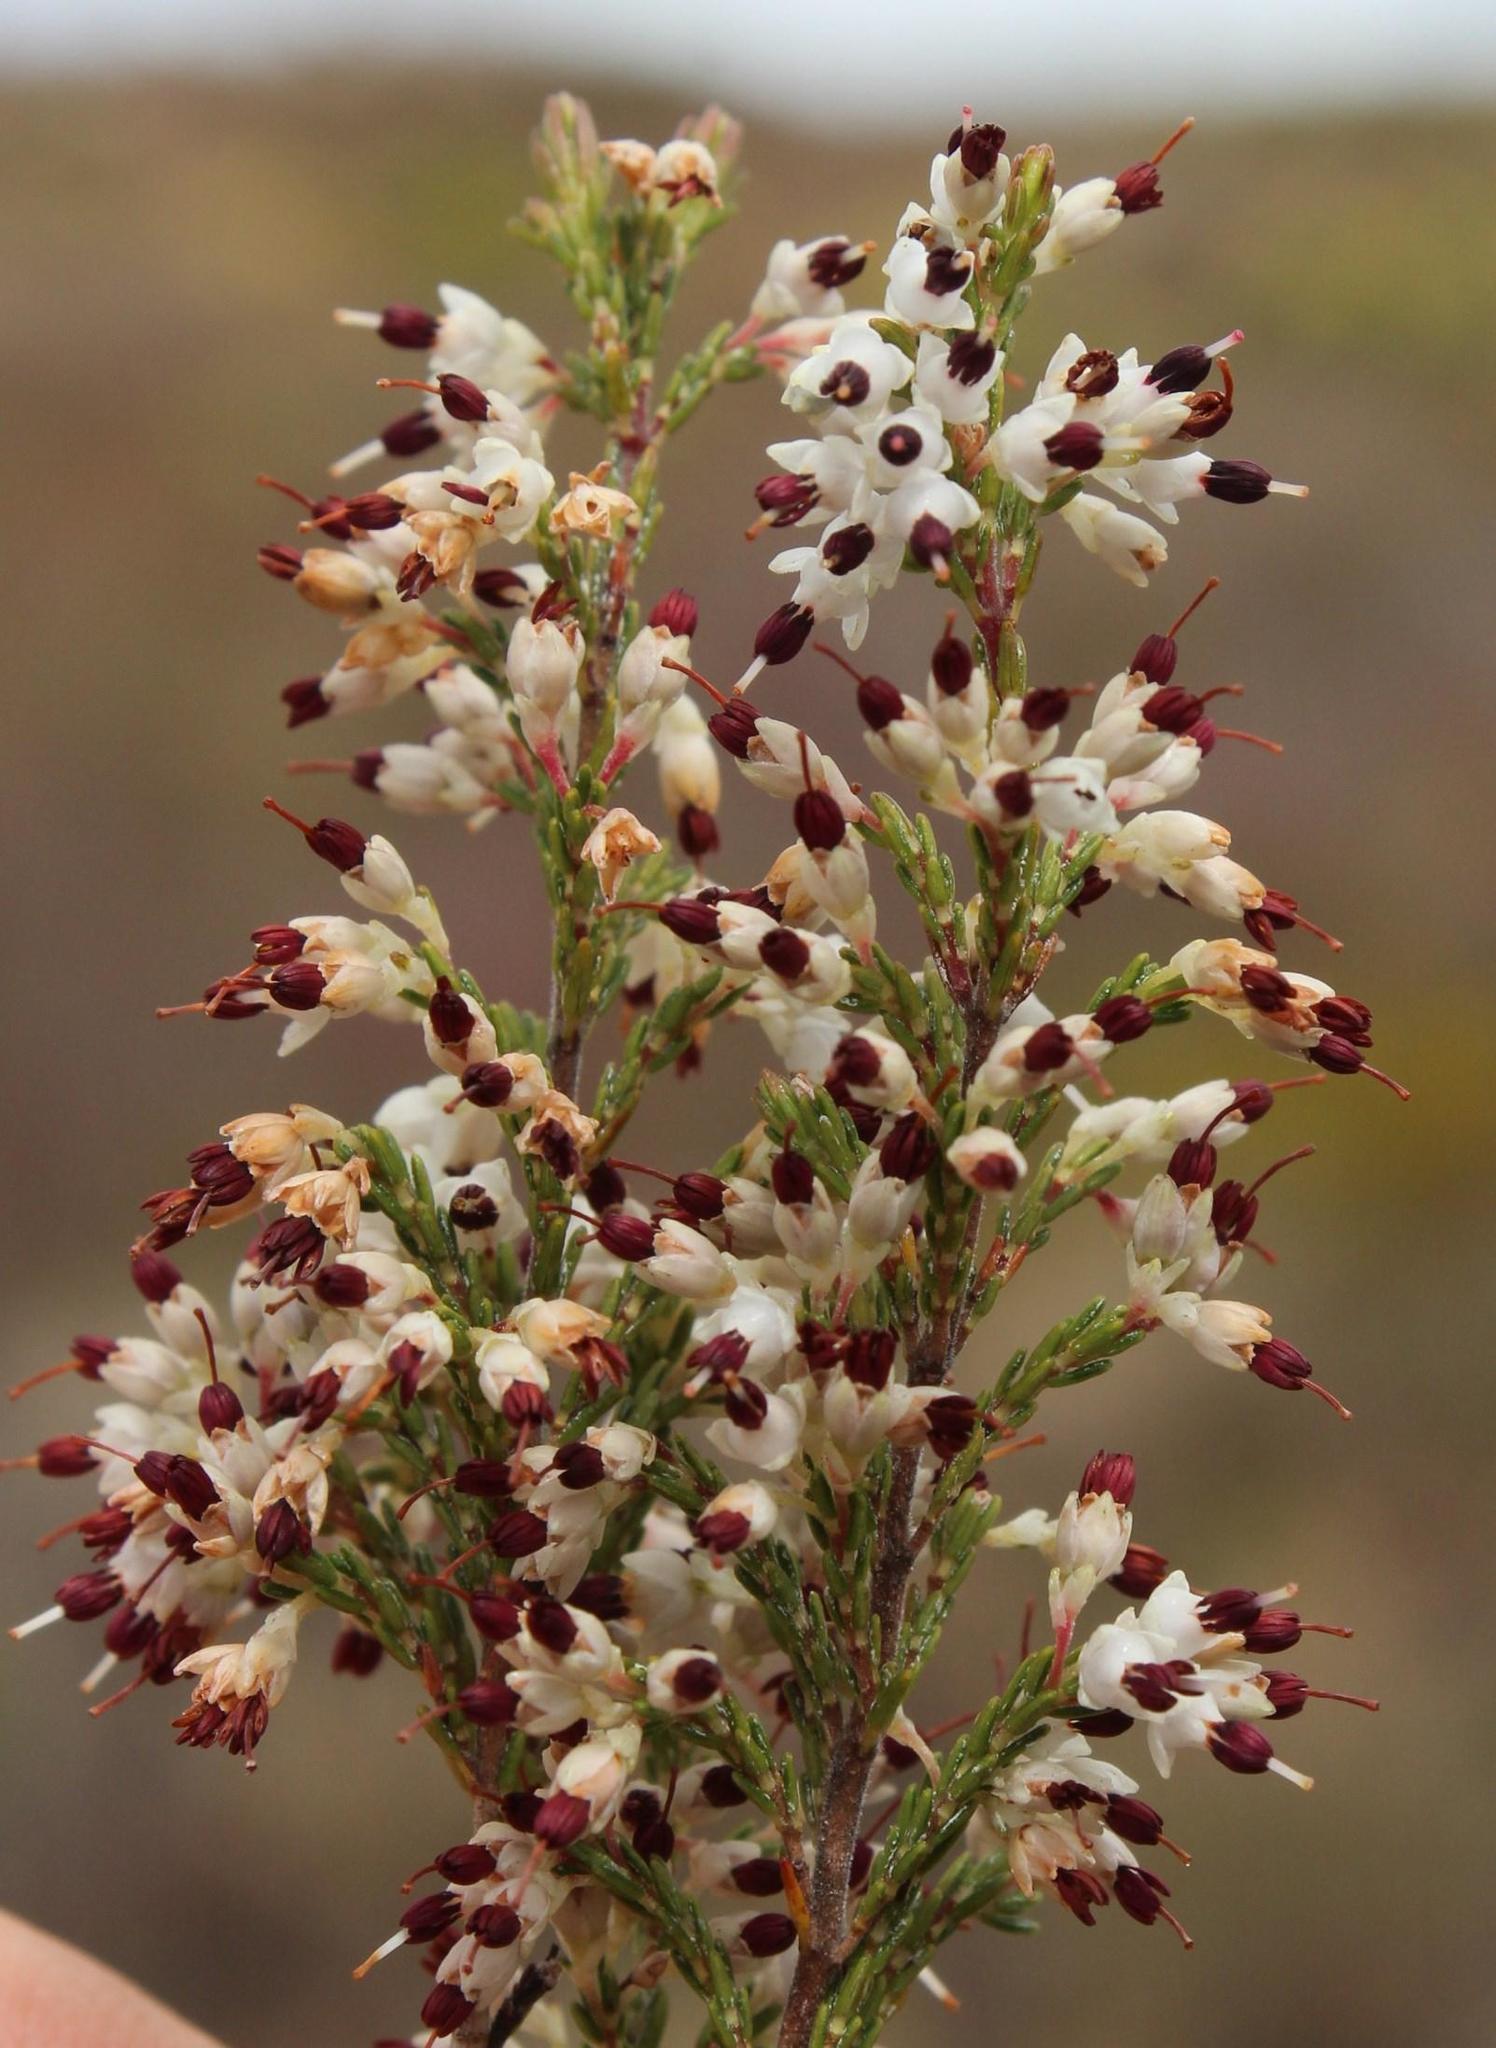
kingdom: Plantae
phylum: Tracheophyta
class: Magnoliopsida
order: Ericales
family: Ericaceae
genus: Erica
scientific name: Erica imbricata
